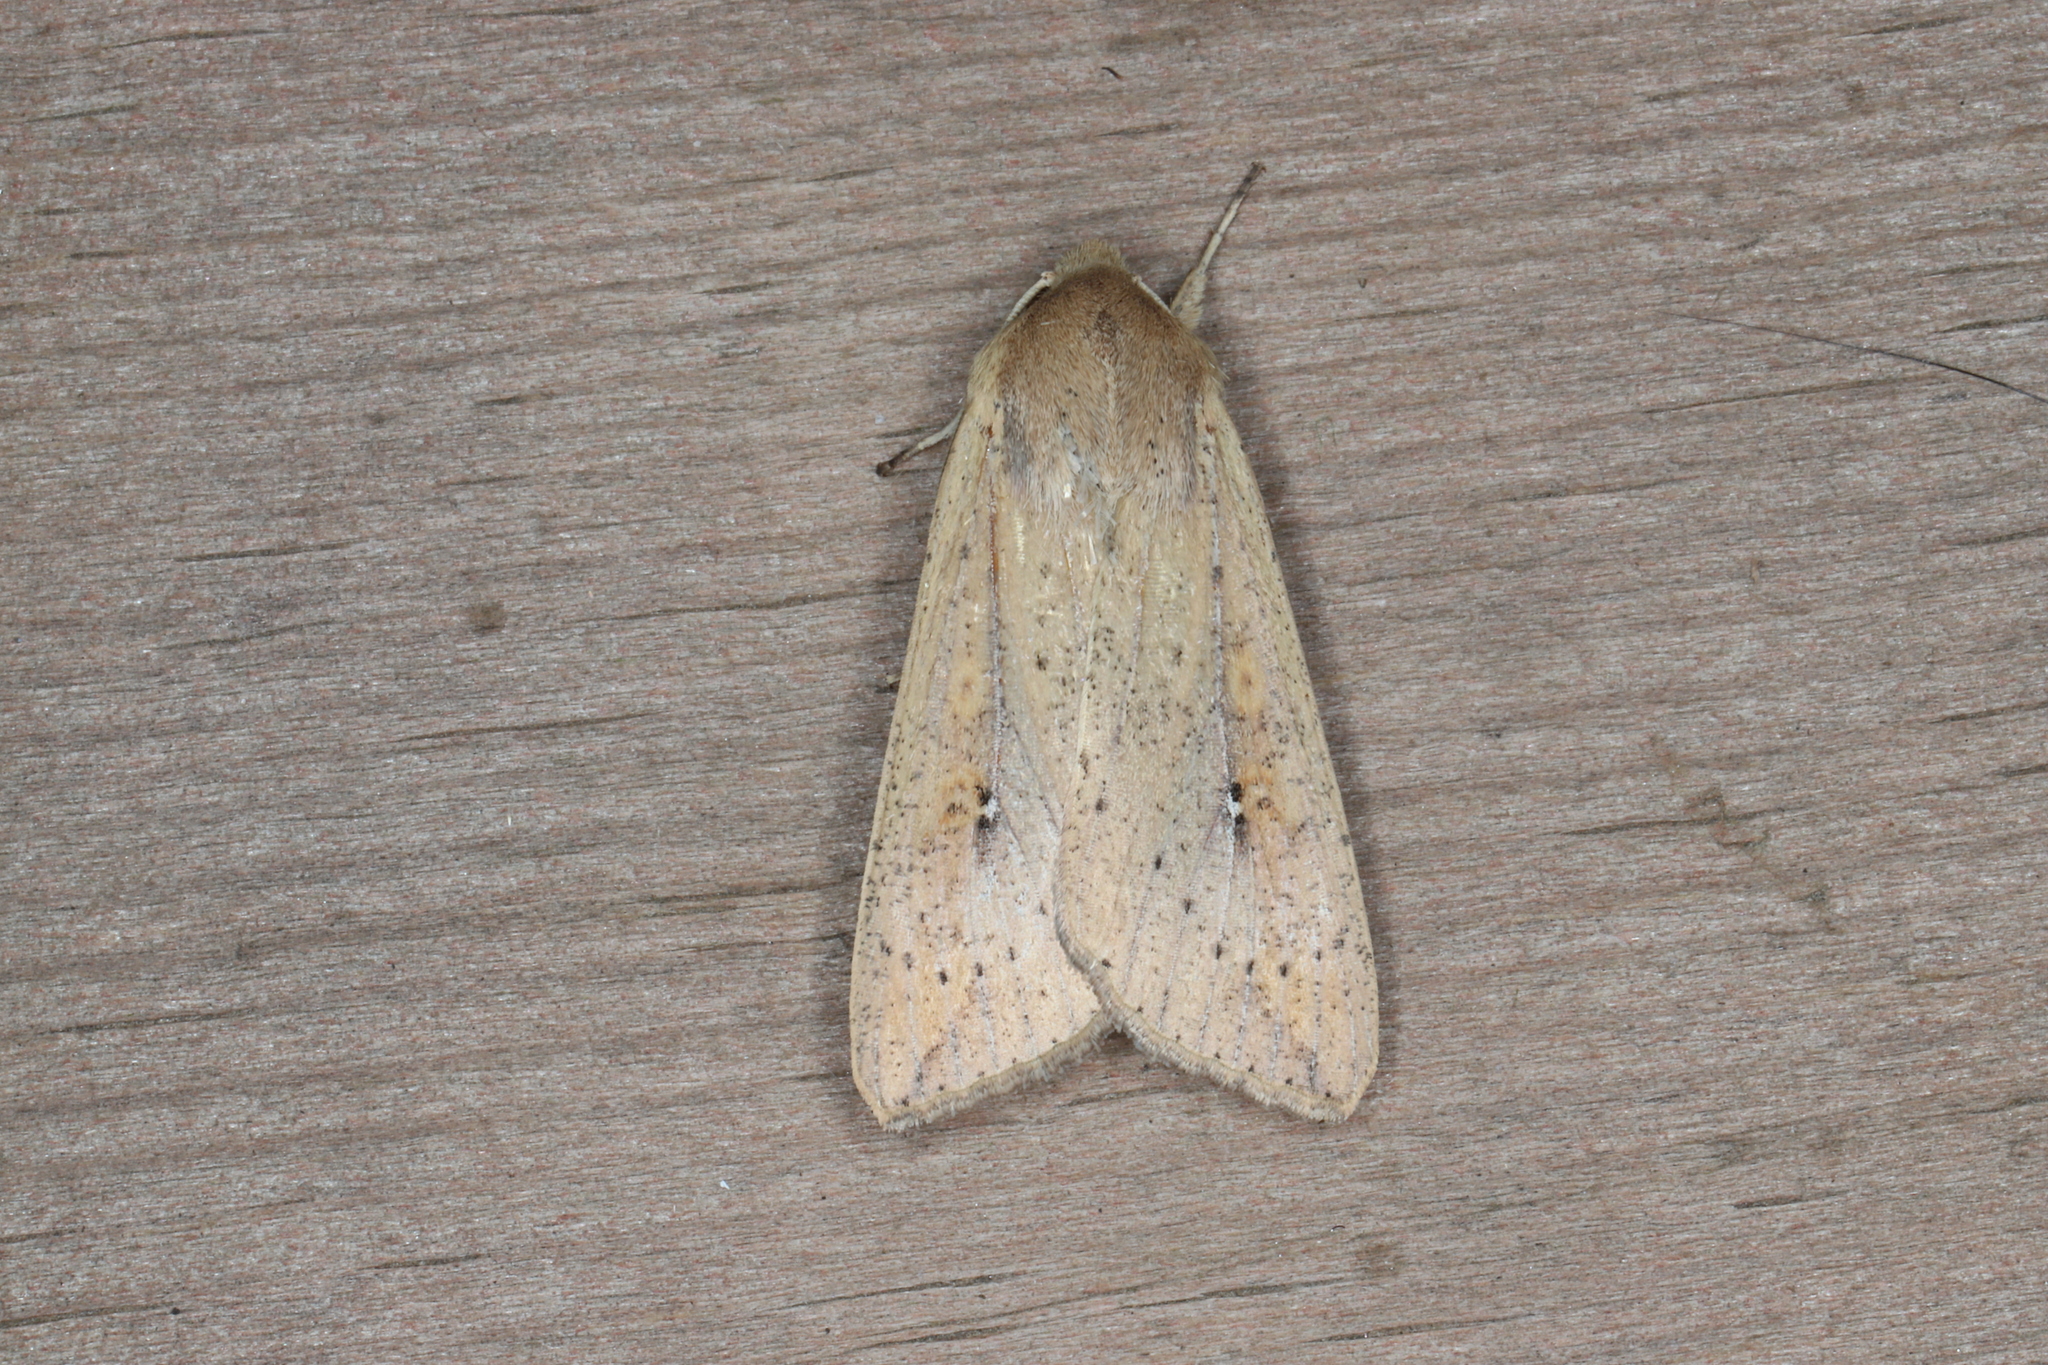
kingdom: Animalia
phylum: Arthropoda
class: Insecta
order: Lepidoptera
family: Noctuidae
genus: Mythimna
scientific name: Mythimna unipuncta
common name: White-speck
